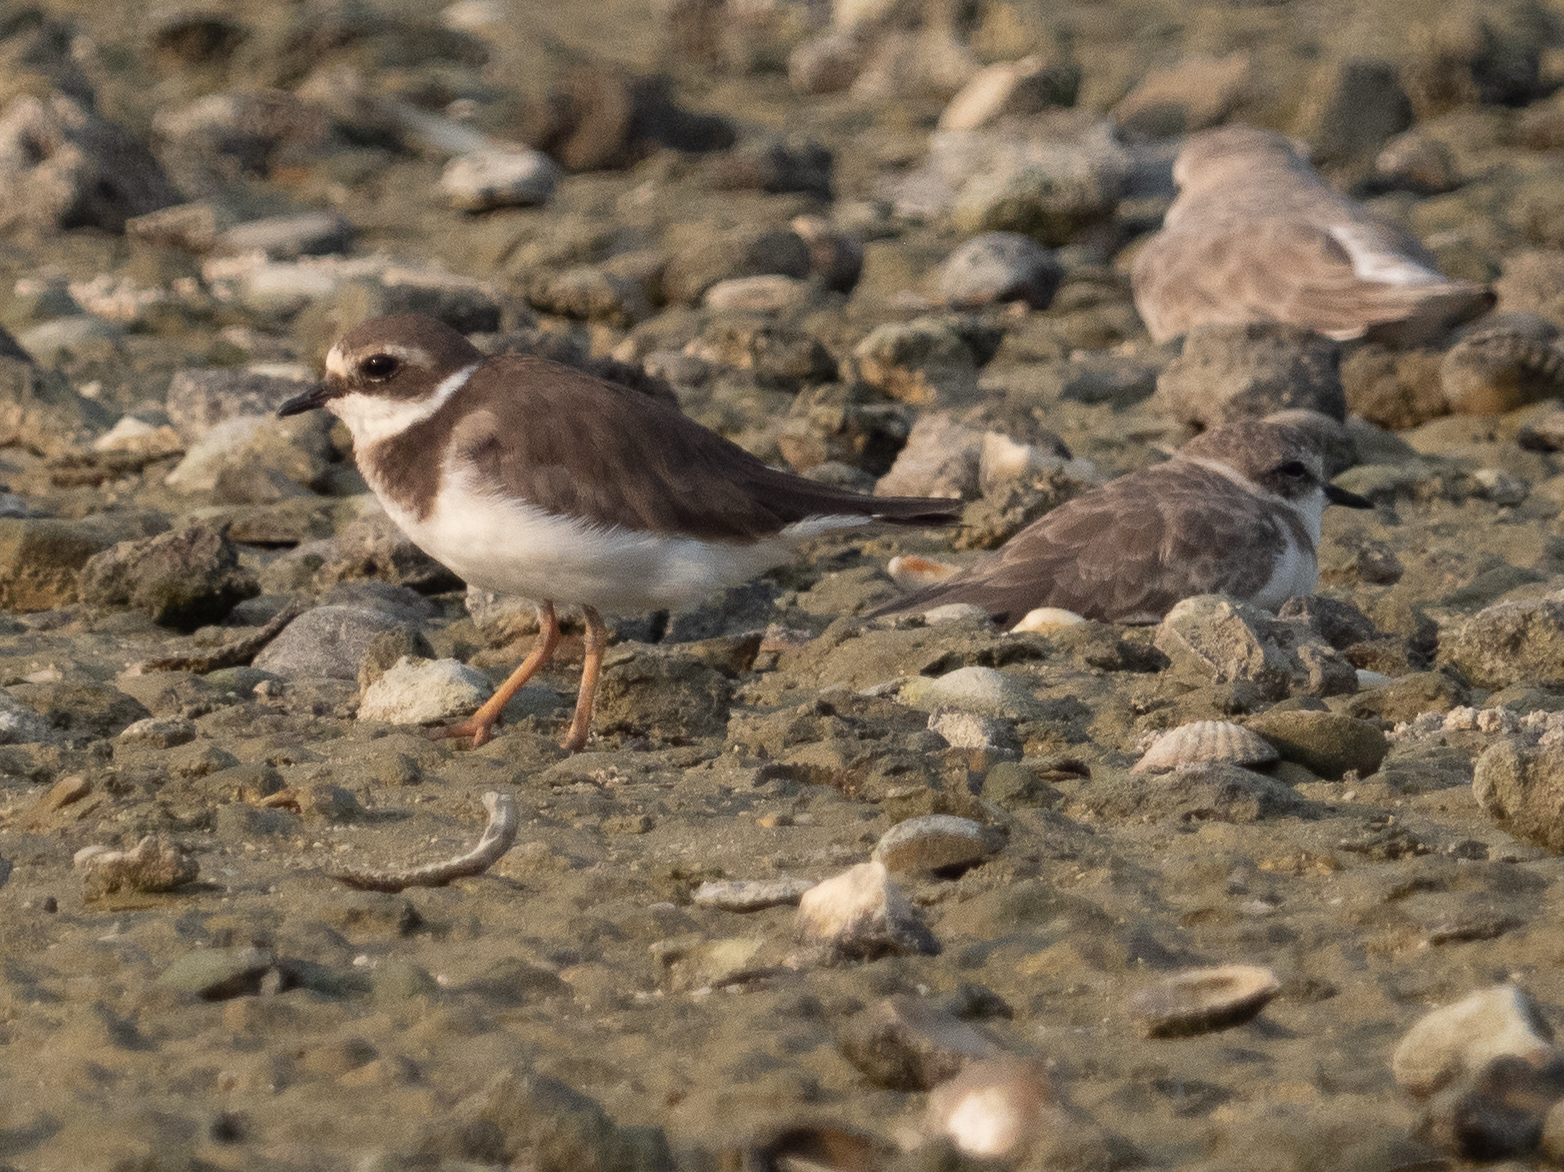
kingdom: Animalia
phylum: Chordata
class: Aves
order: Charadriiformes
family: Charadriidae
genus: Charadrius
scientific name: Charadrius hiaticula
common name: Common ringed plover
